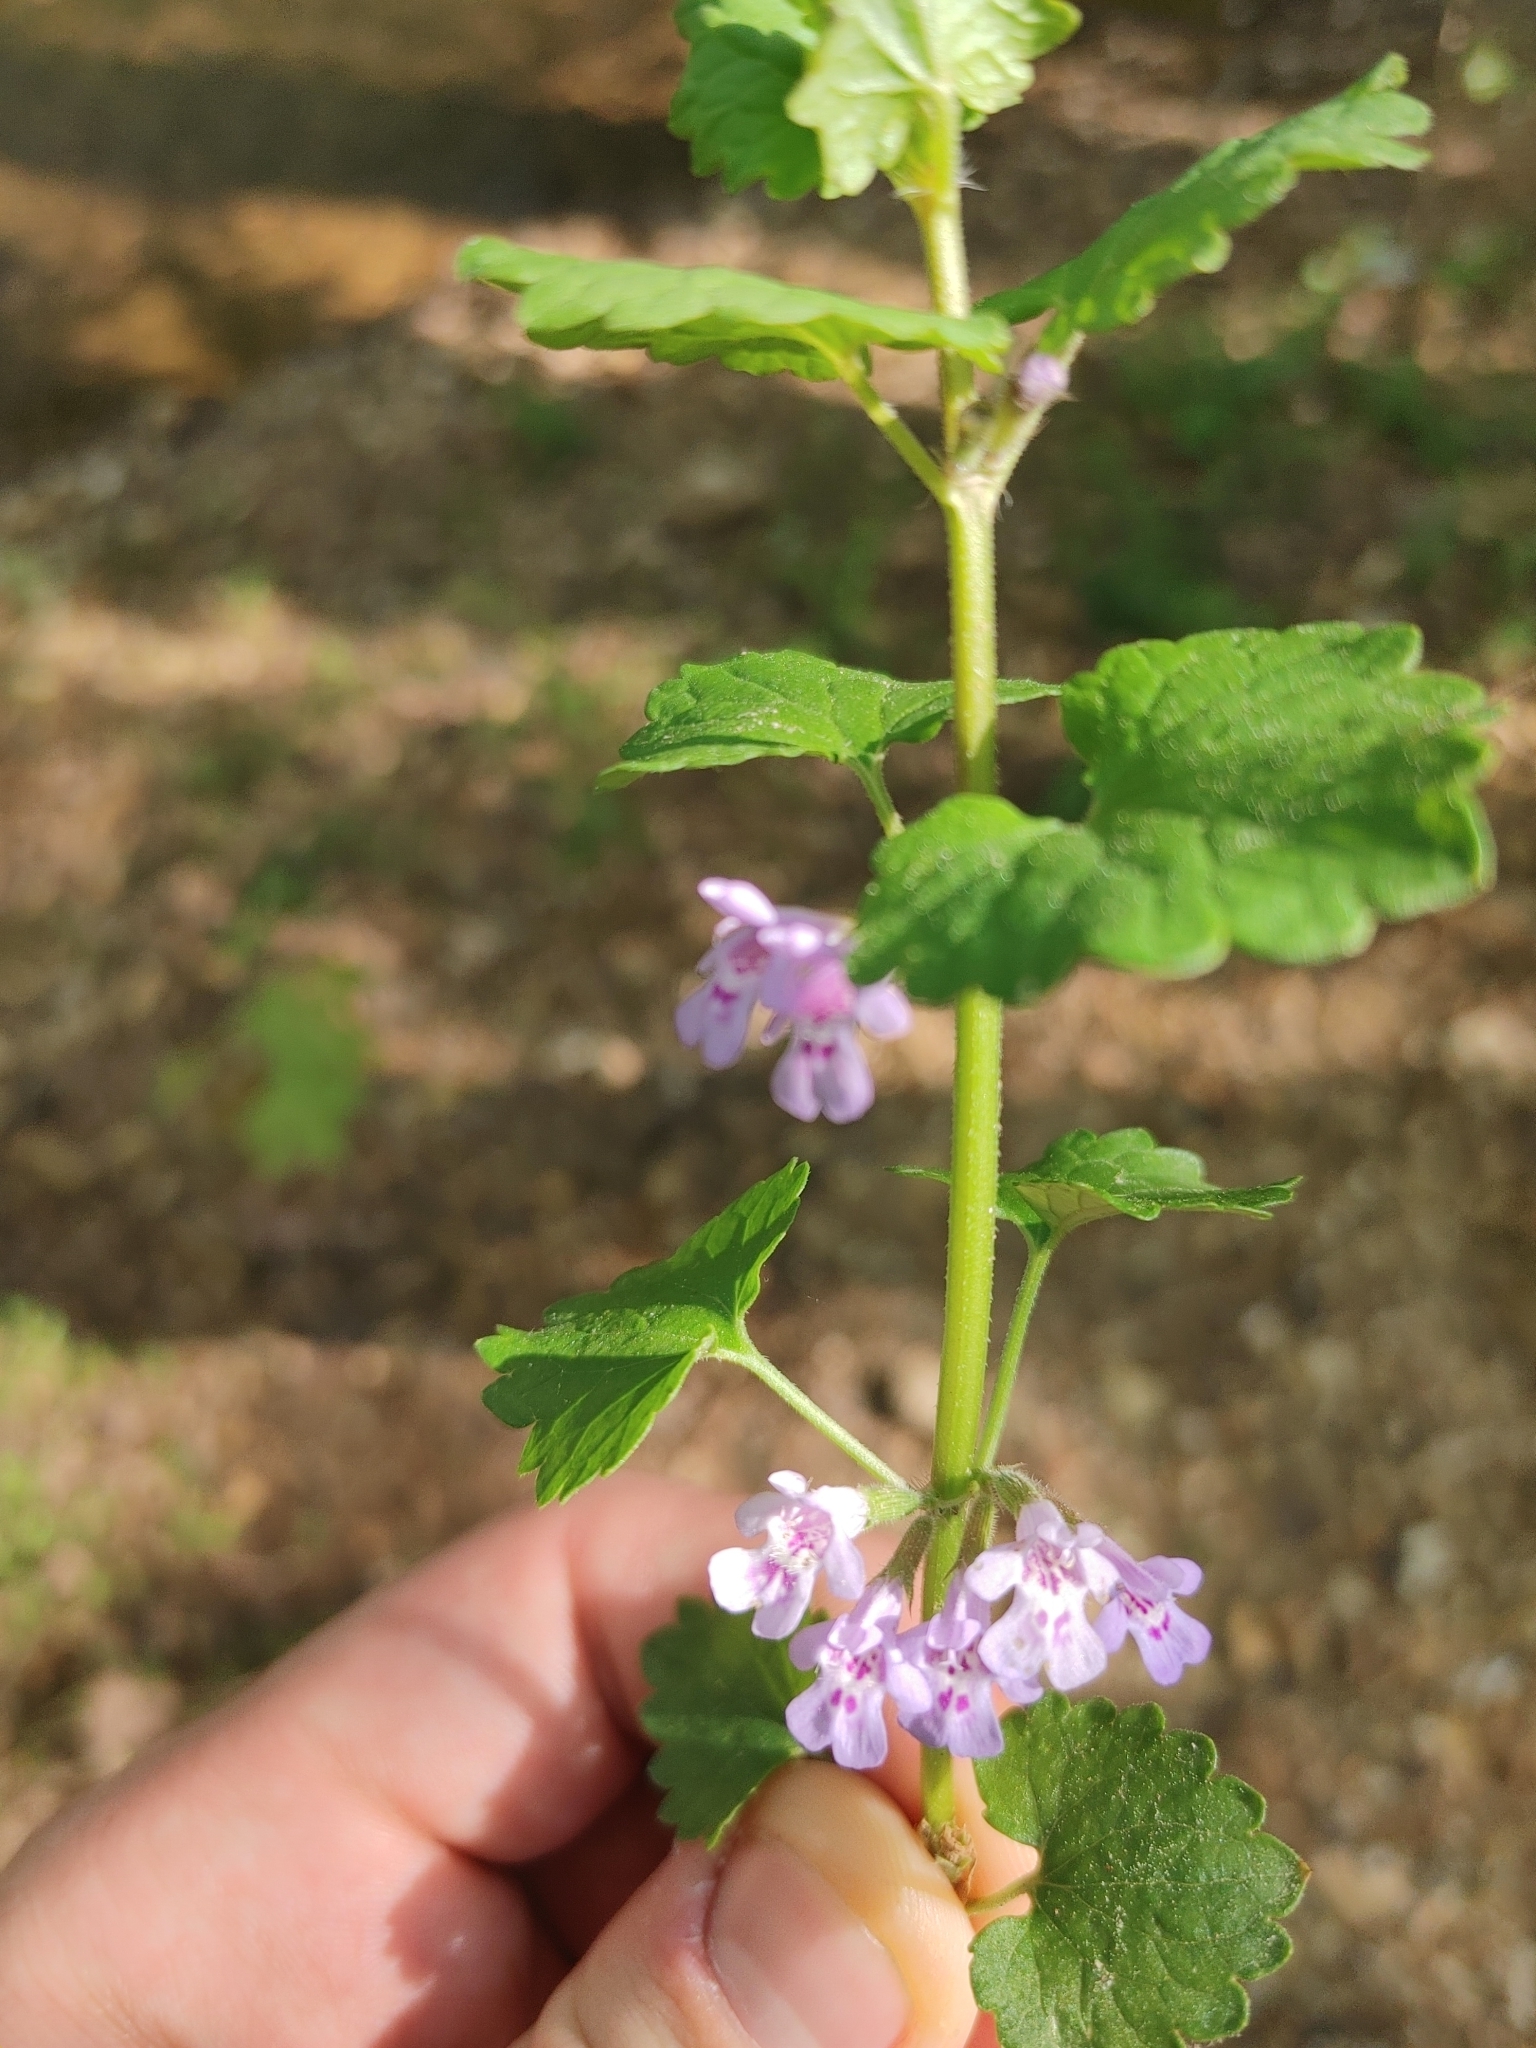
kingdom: Plantae
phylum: Tracheophyta
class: Magnoliopsida
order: Lamiales
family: Lamiaceae
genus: Glechoma
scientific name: Glechoma hederacea
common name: Ground ivy
